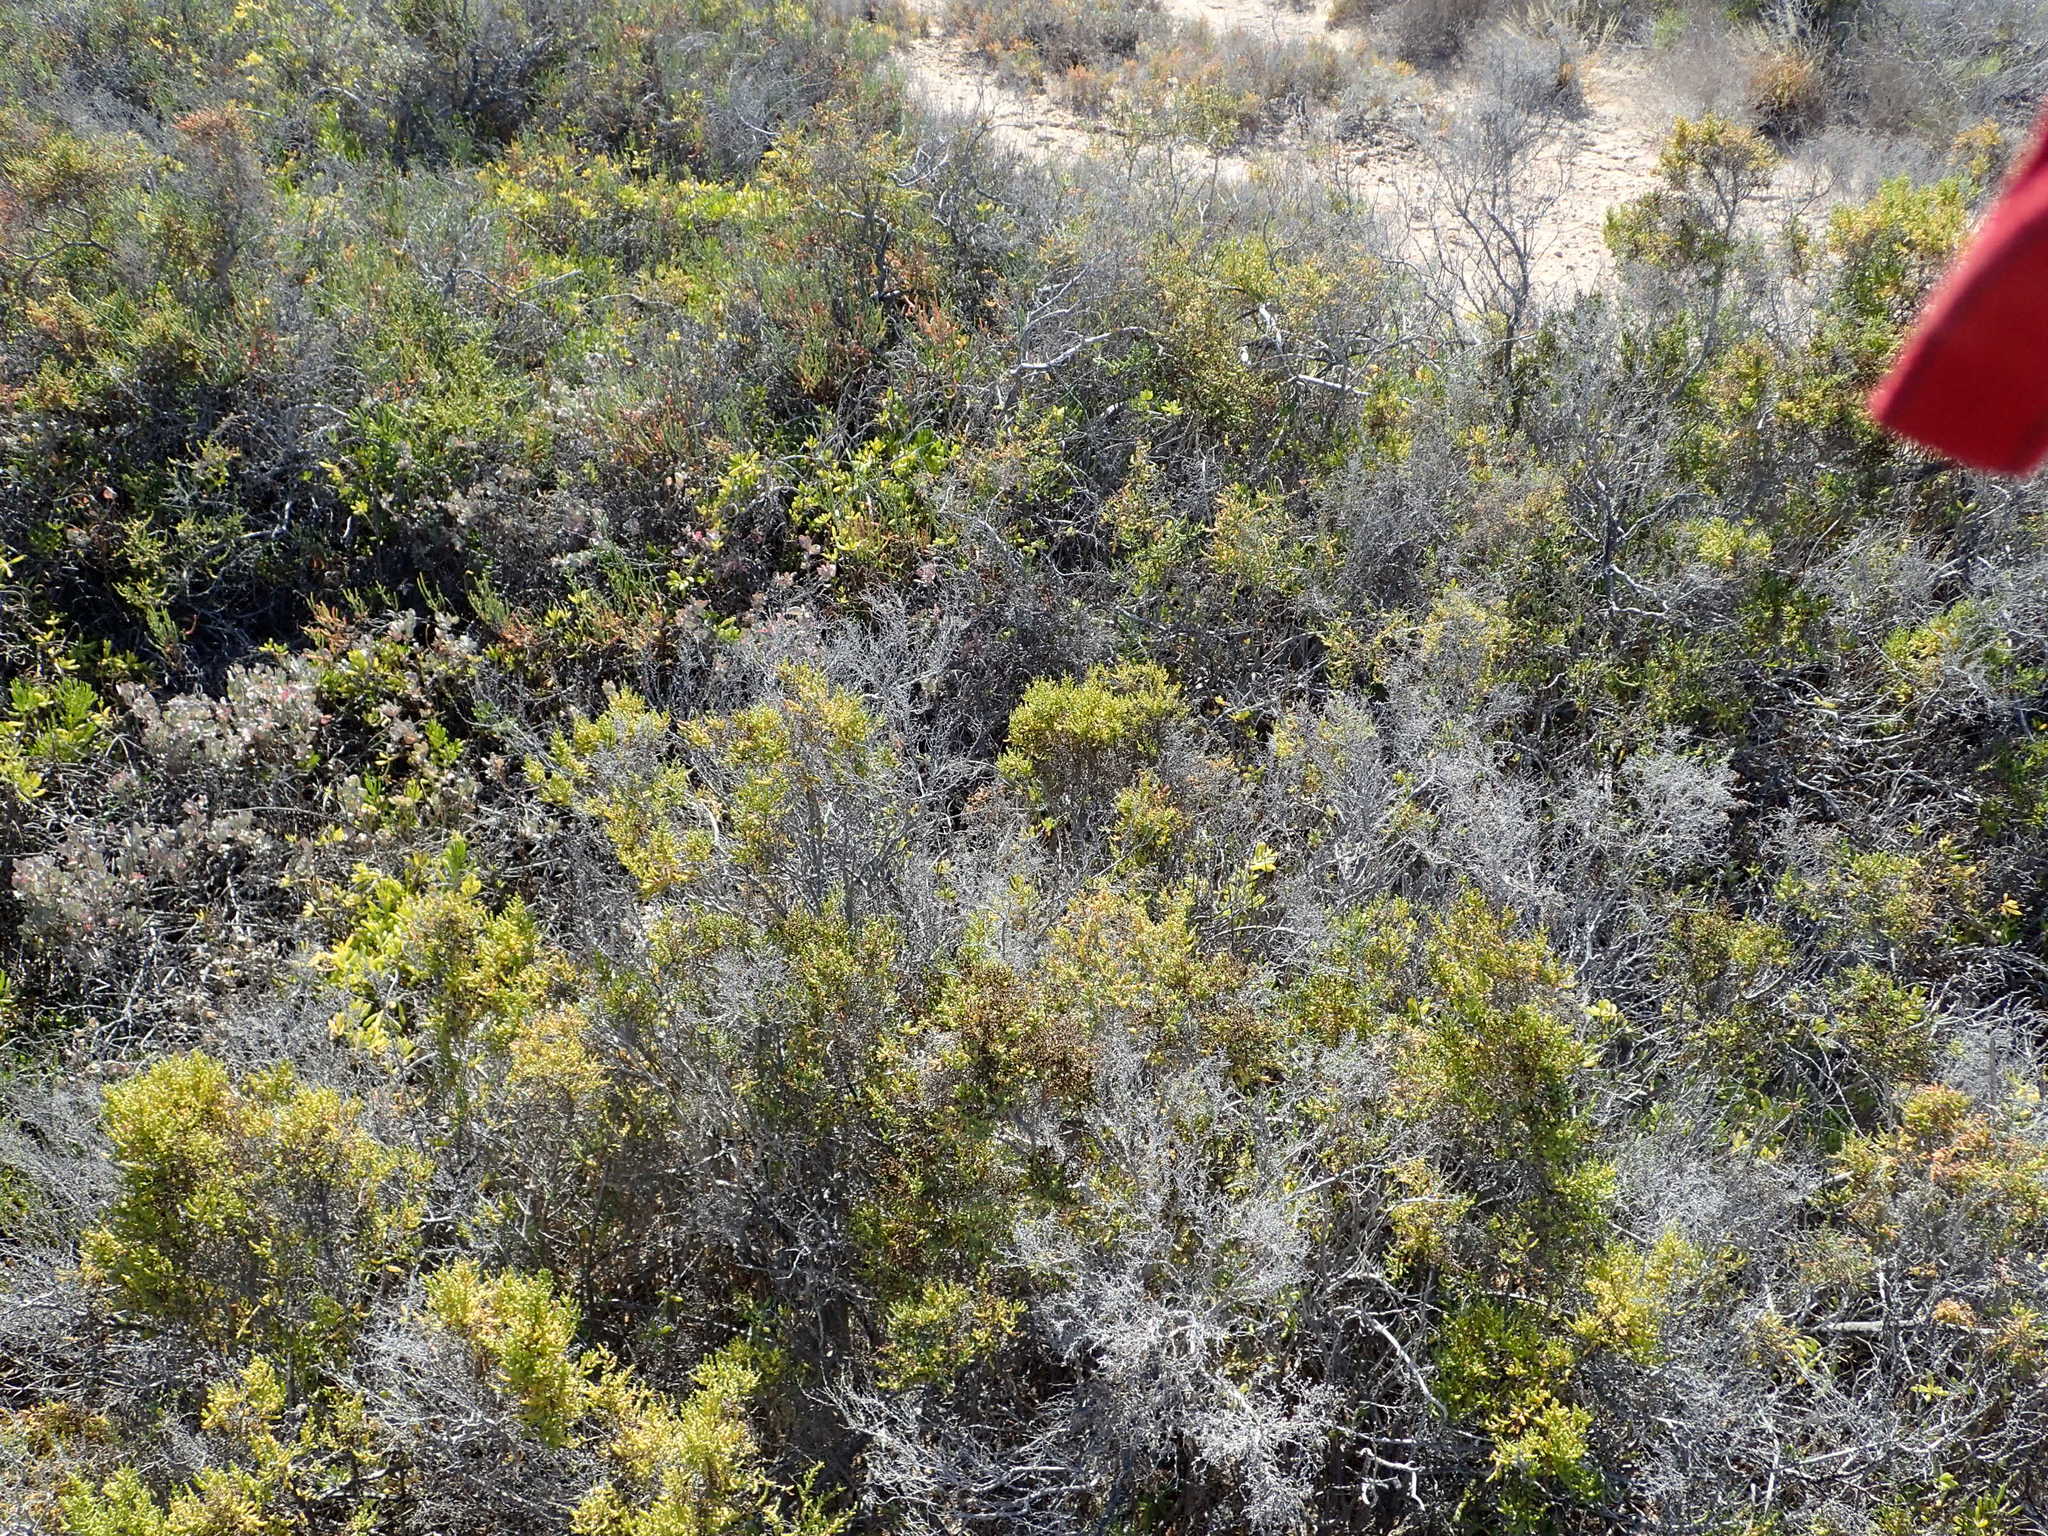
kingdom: Plantae
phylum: Tracheophyta
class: Magnoliopsida
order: Caryophyllales
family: Amaranthaceae
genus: Allenrolfea
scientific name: Allenrolfea occidentalis
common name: Iodine-bush
